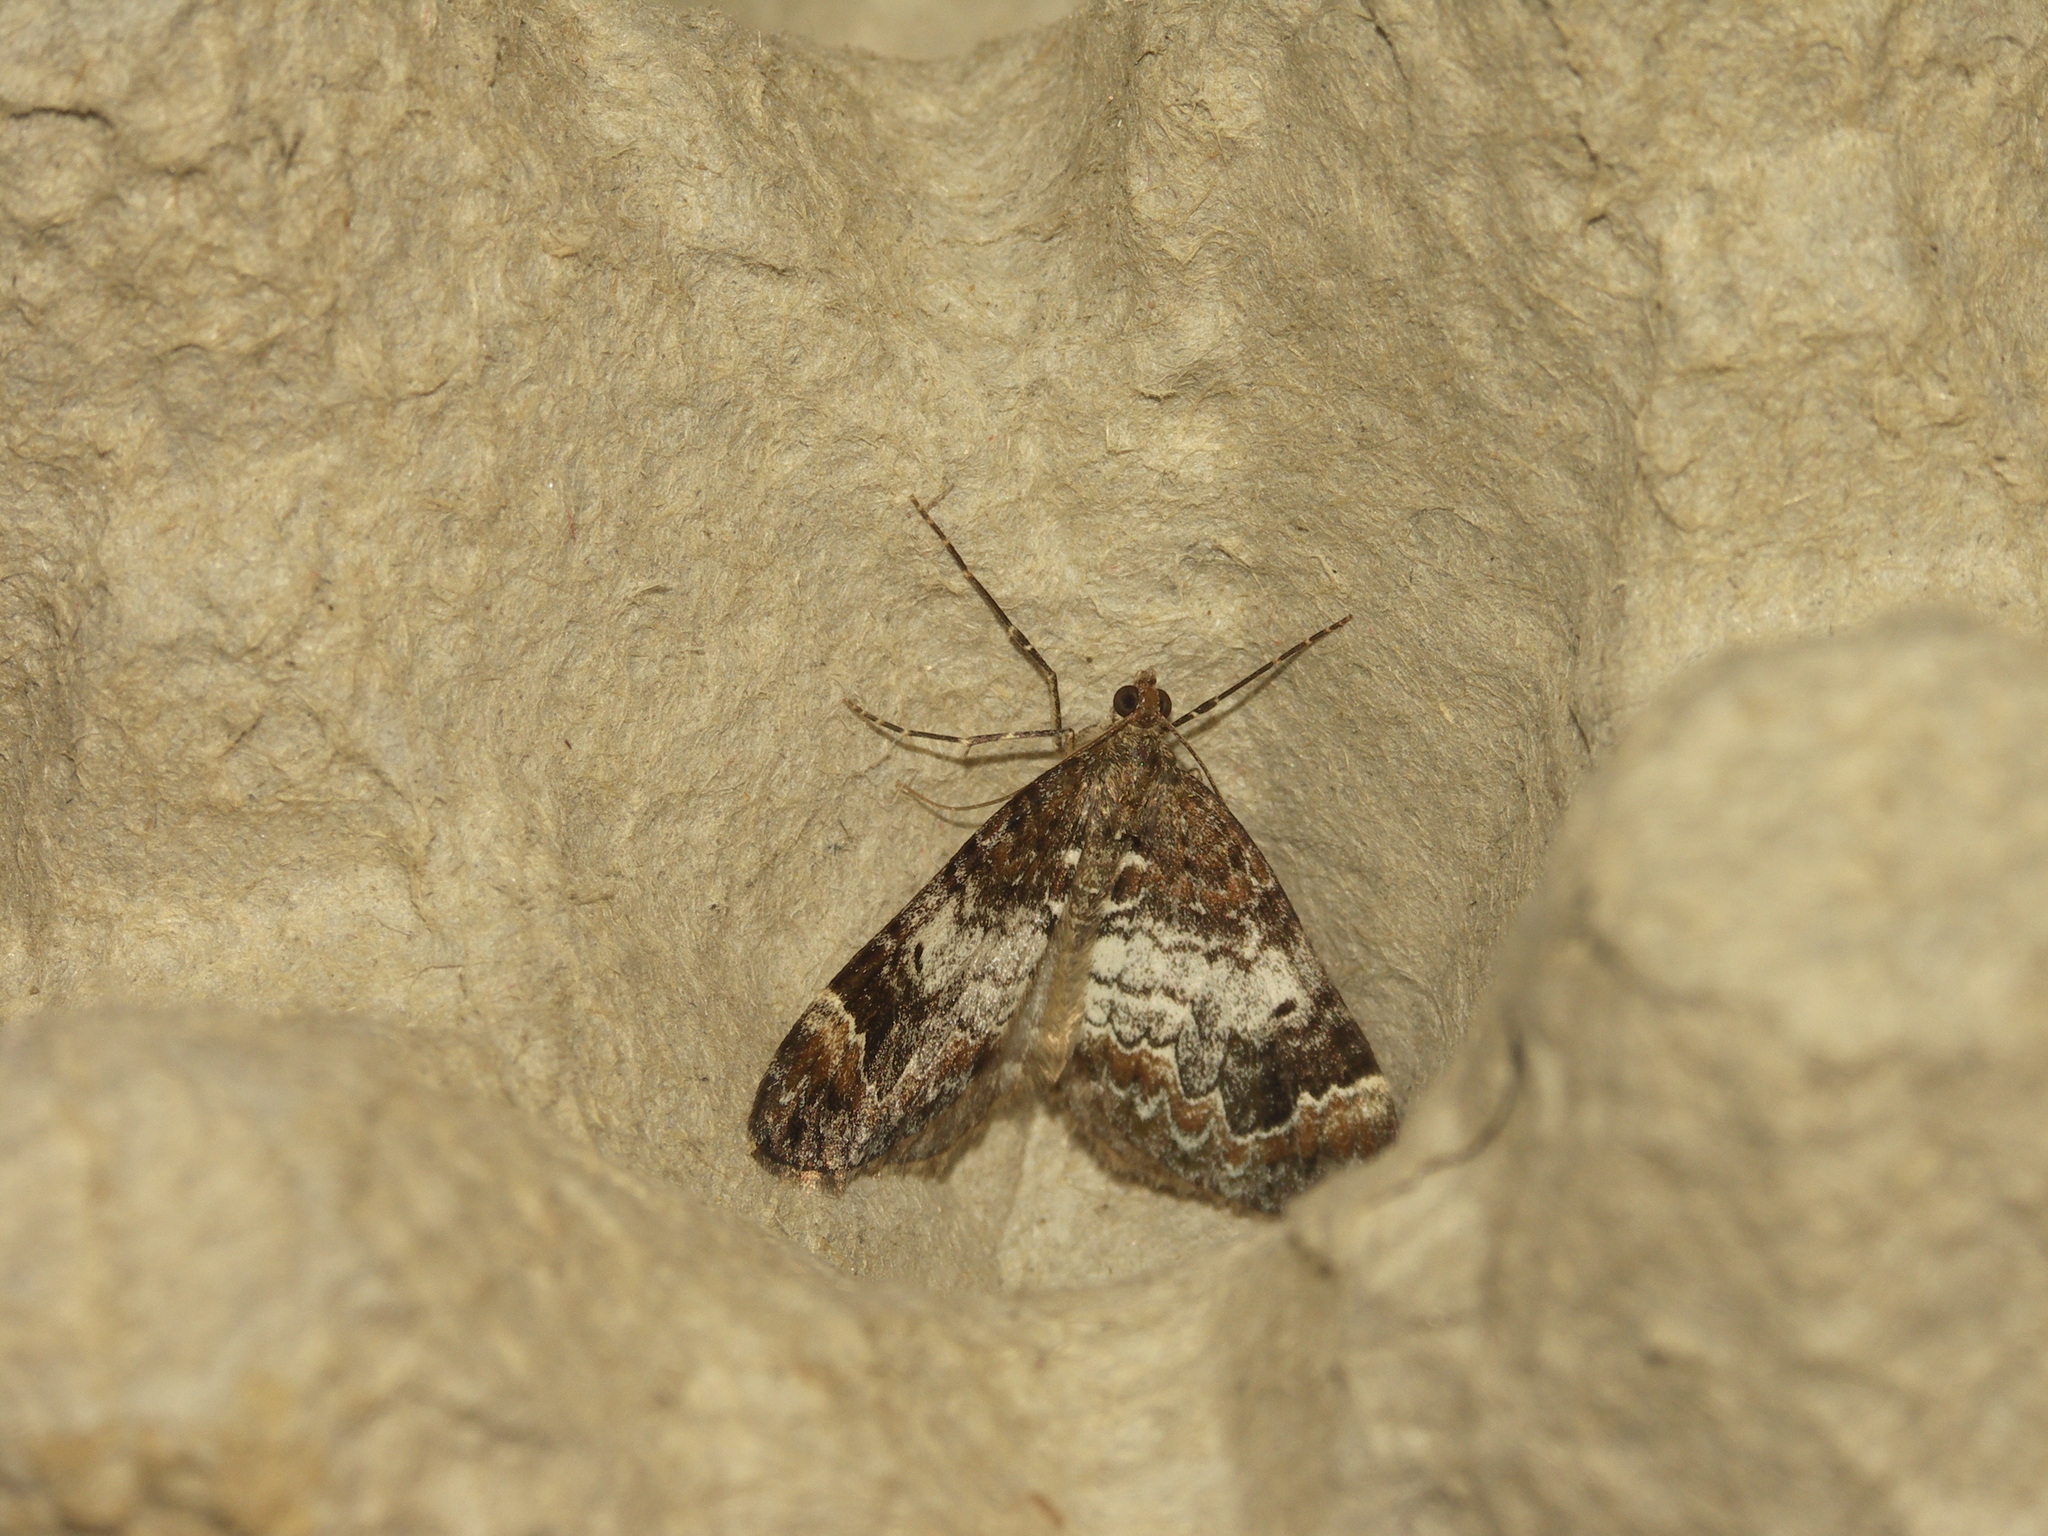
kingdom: Animalia
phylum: Arthropoda
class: Insecta
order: Lepidoptera
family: Geometridae
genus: Dysstroma
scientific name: Dysstroma truncata
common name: Common marbled carpet
